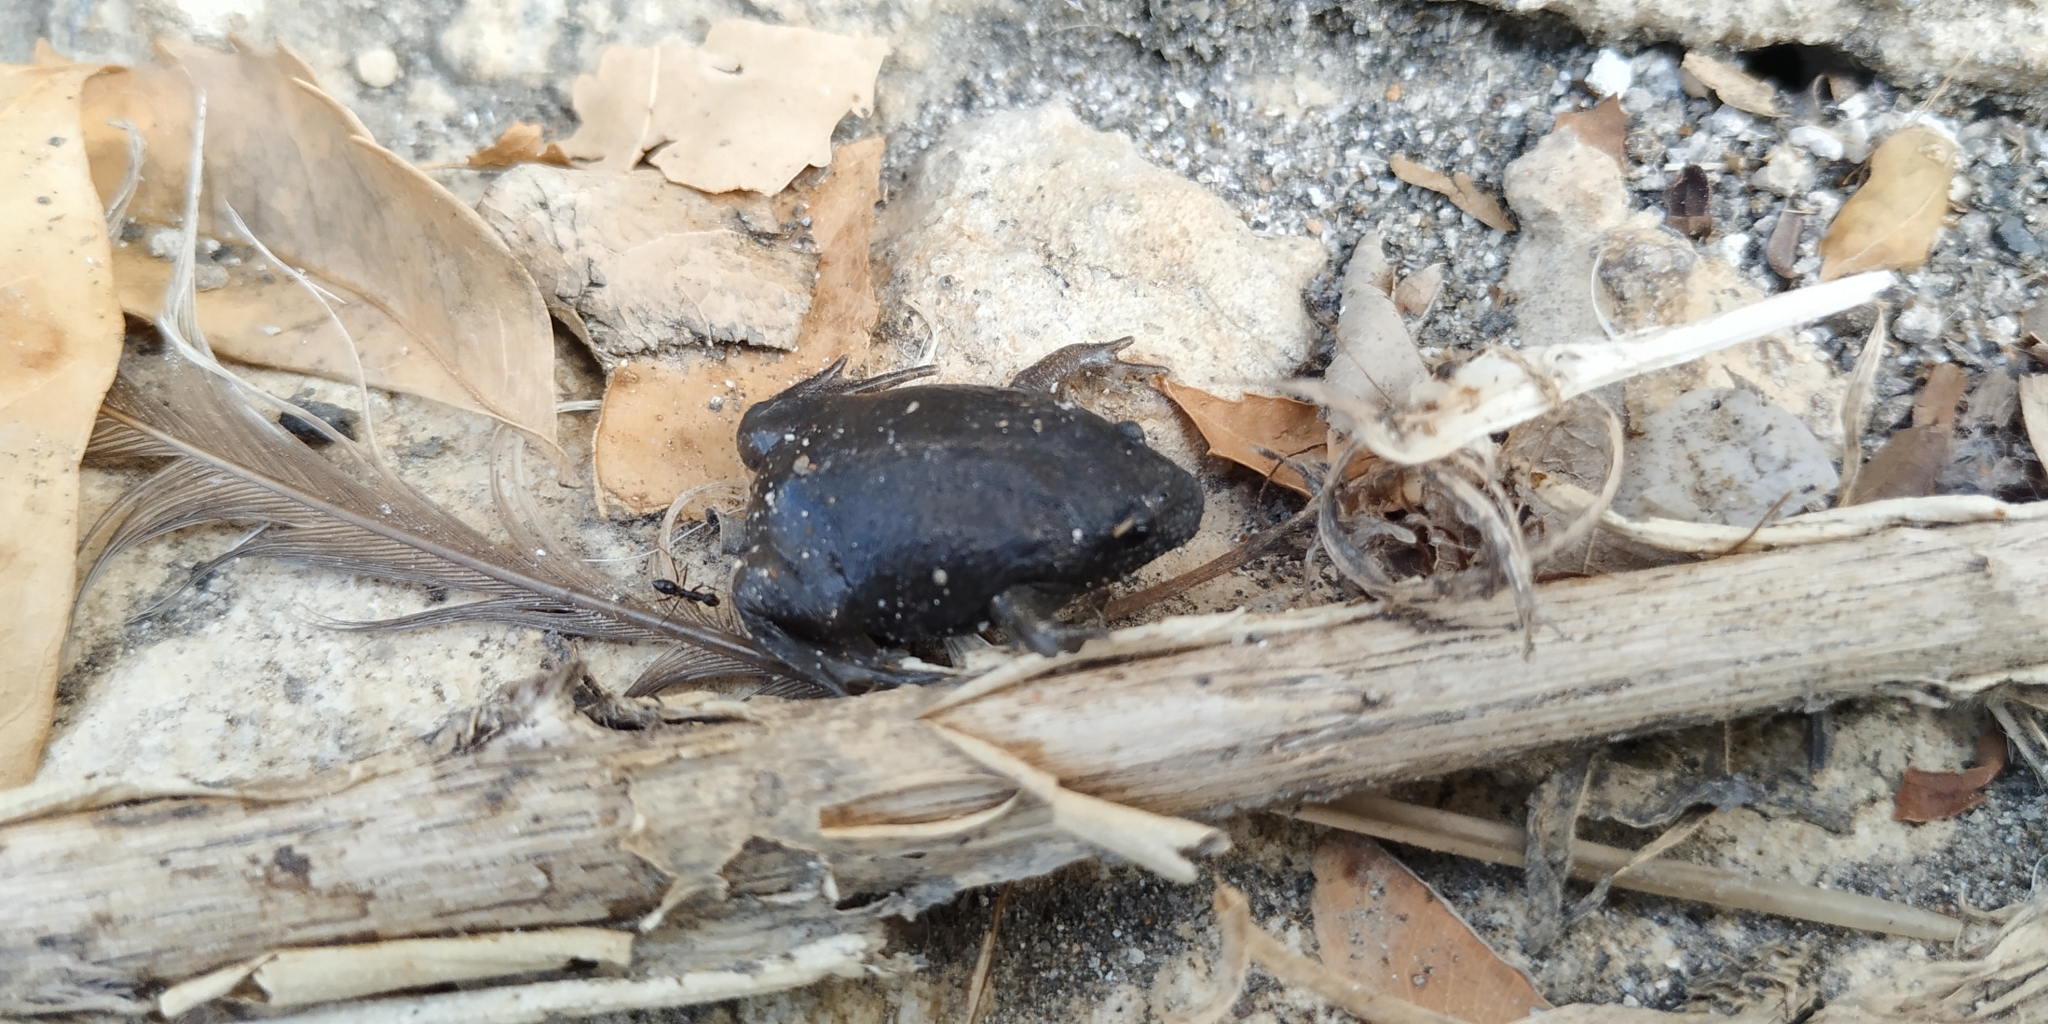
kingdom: Animalia
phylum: Chordata
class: Amphibia
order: Anura
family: Rhinophrynidae
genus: Rhinophrynus
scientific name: Rhinophrynus dorsalis
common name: Mexican burrowing toad
